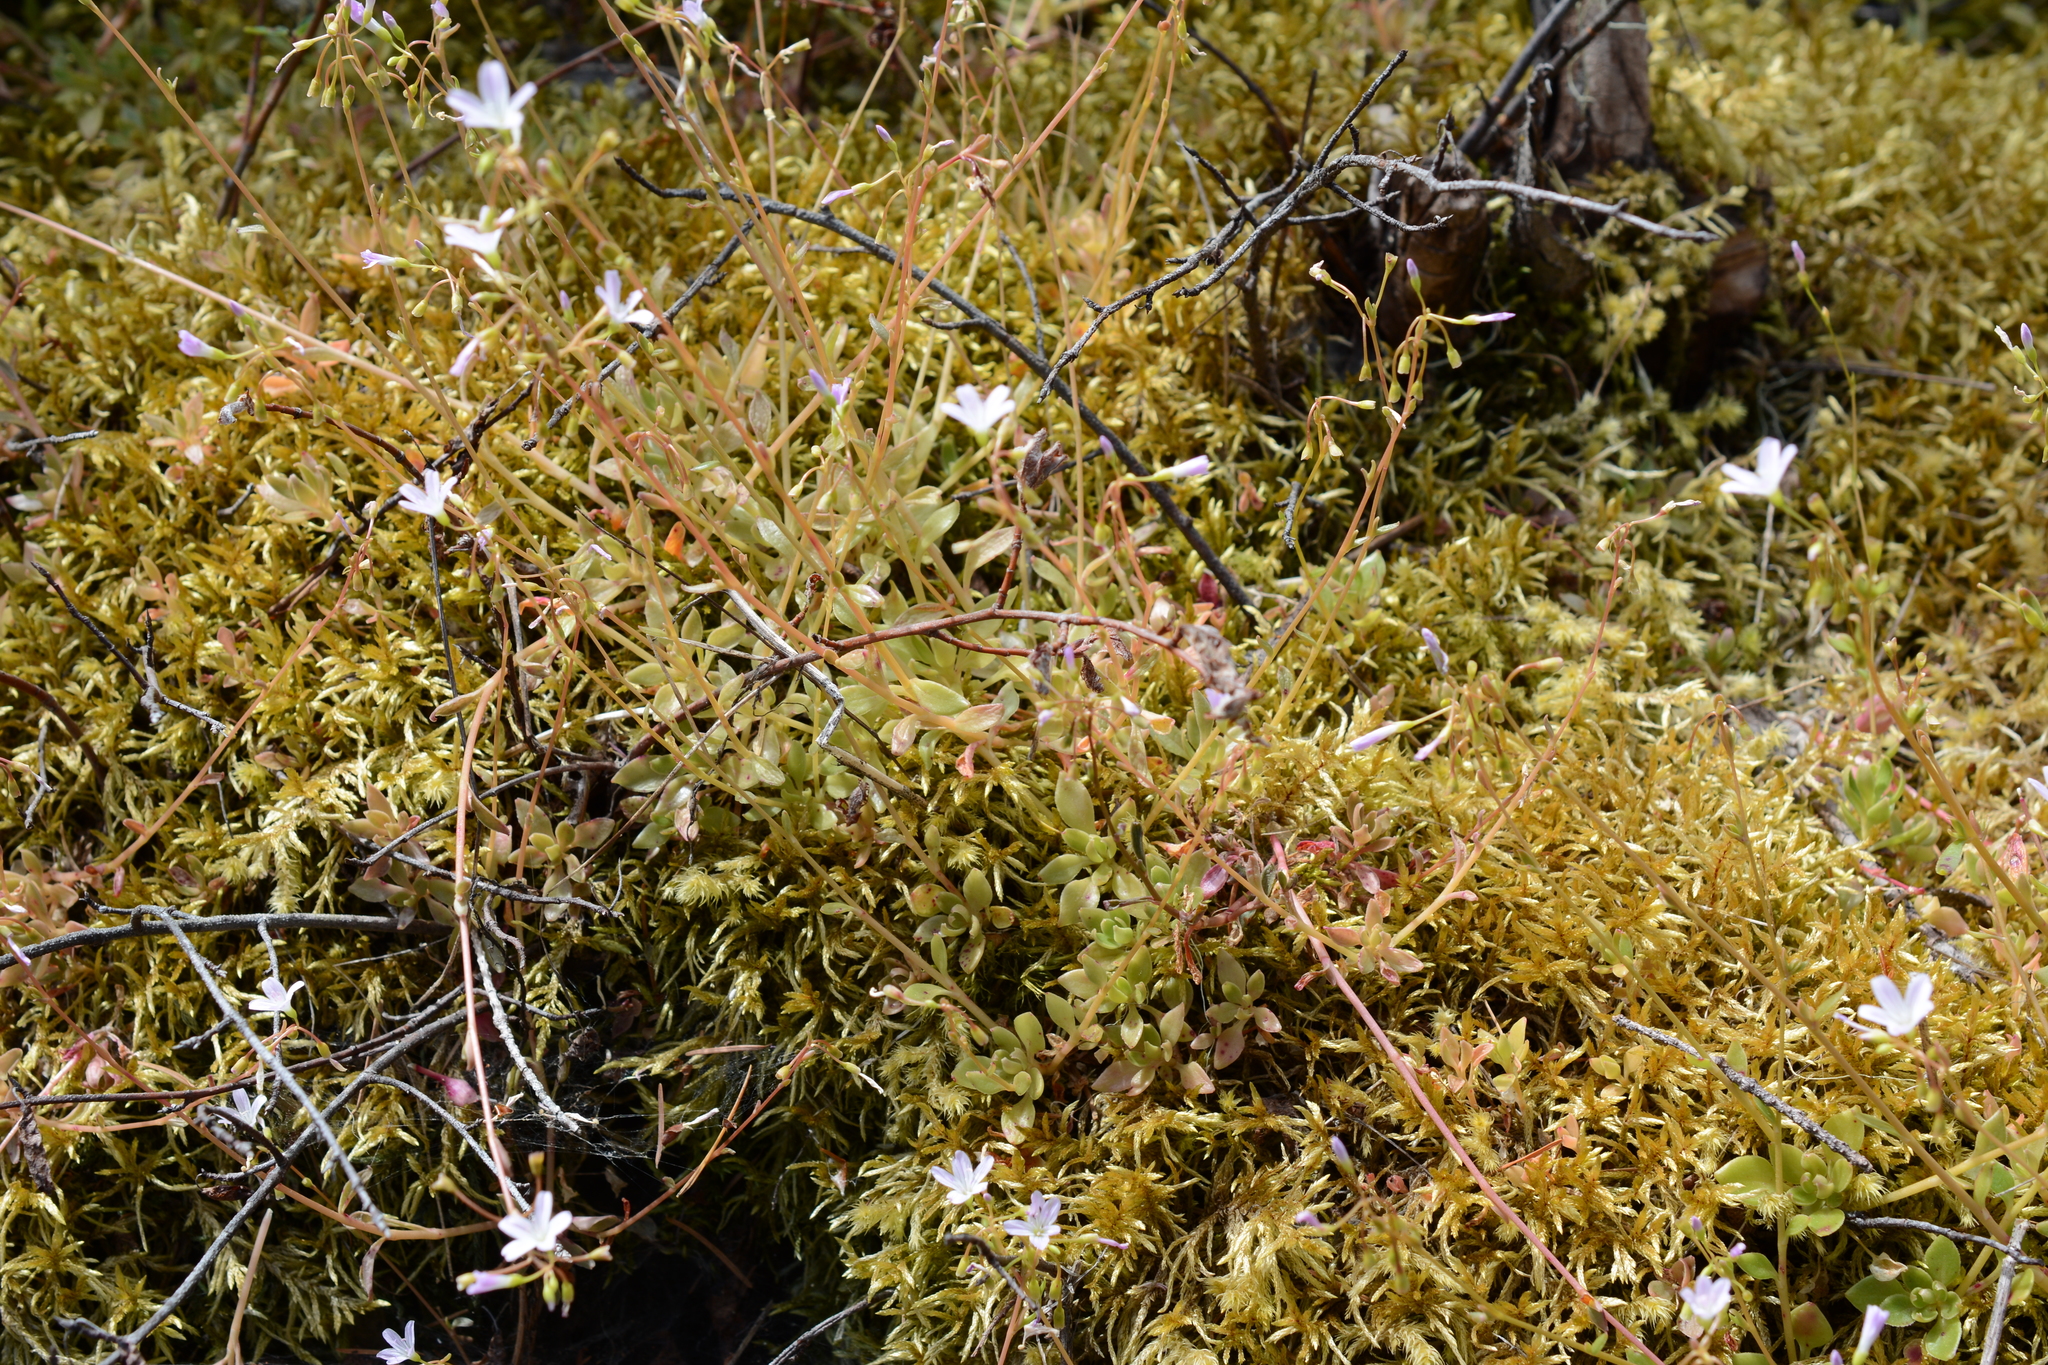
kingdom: Plantae
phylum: Tracheophyta
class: Magnoliopsida
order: Caryophyllales
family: Montiaceae
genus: Montia
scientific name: Montia parvifolia
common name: Small-leaved blinks
